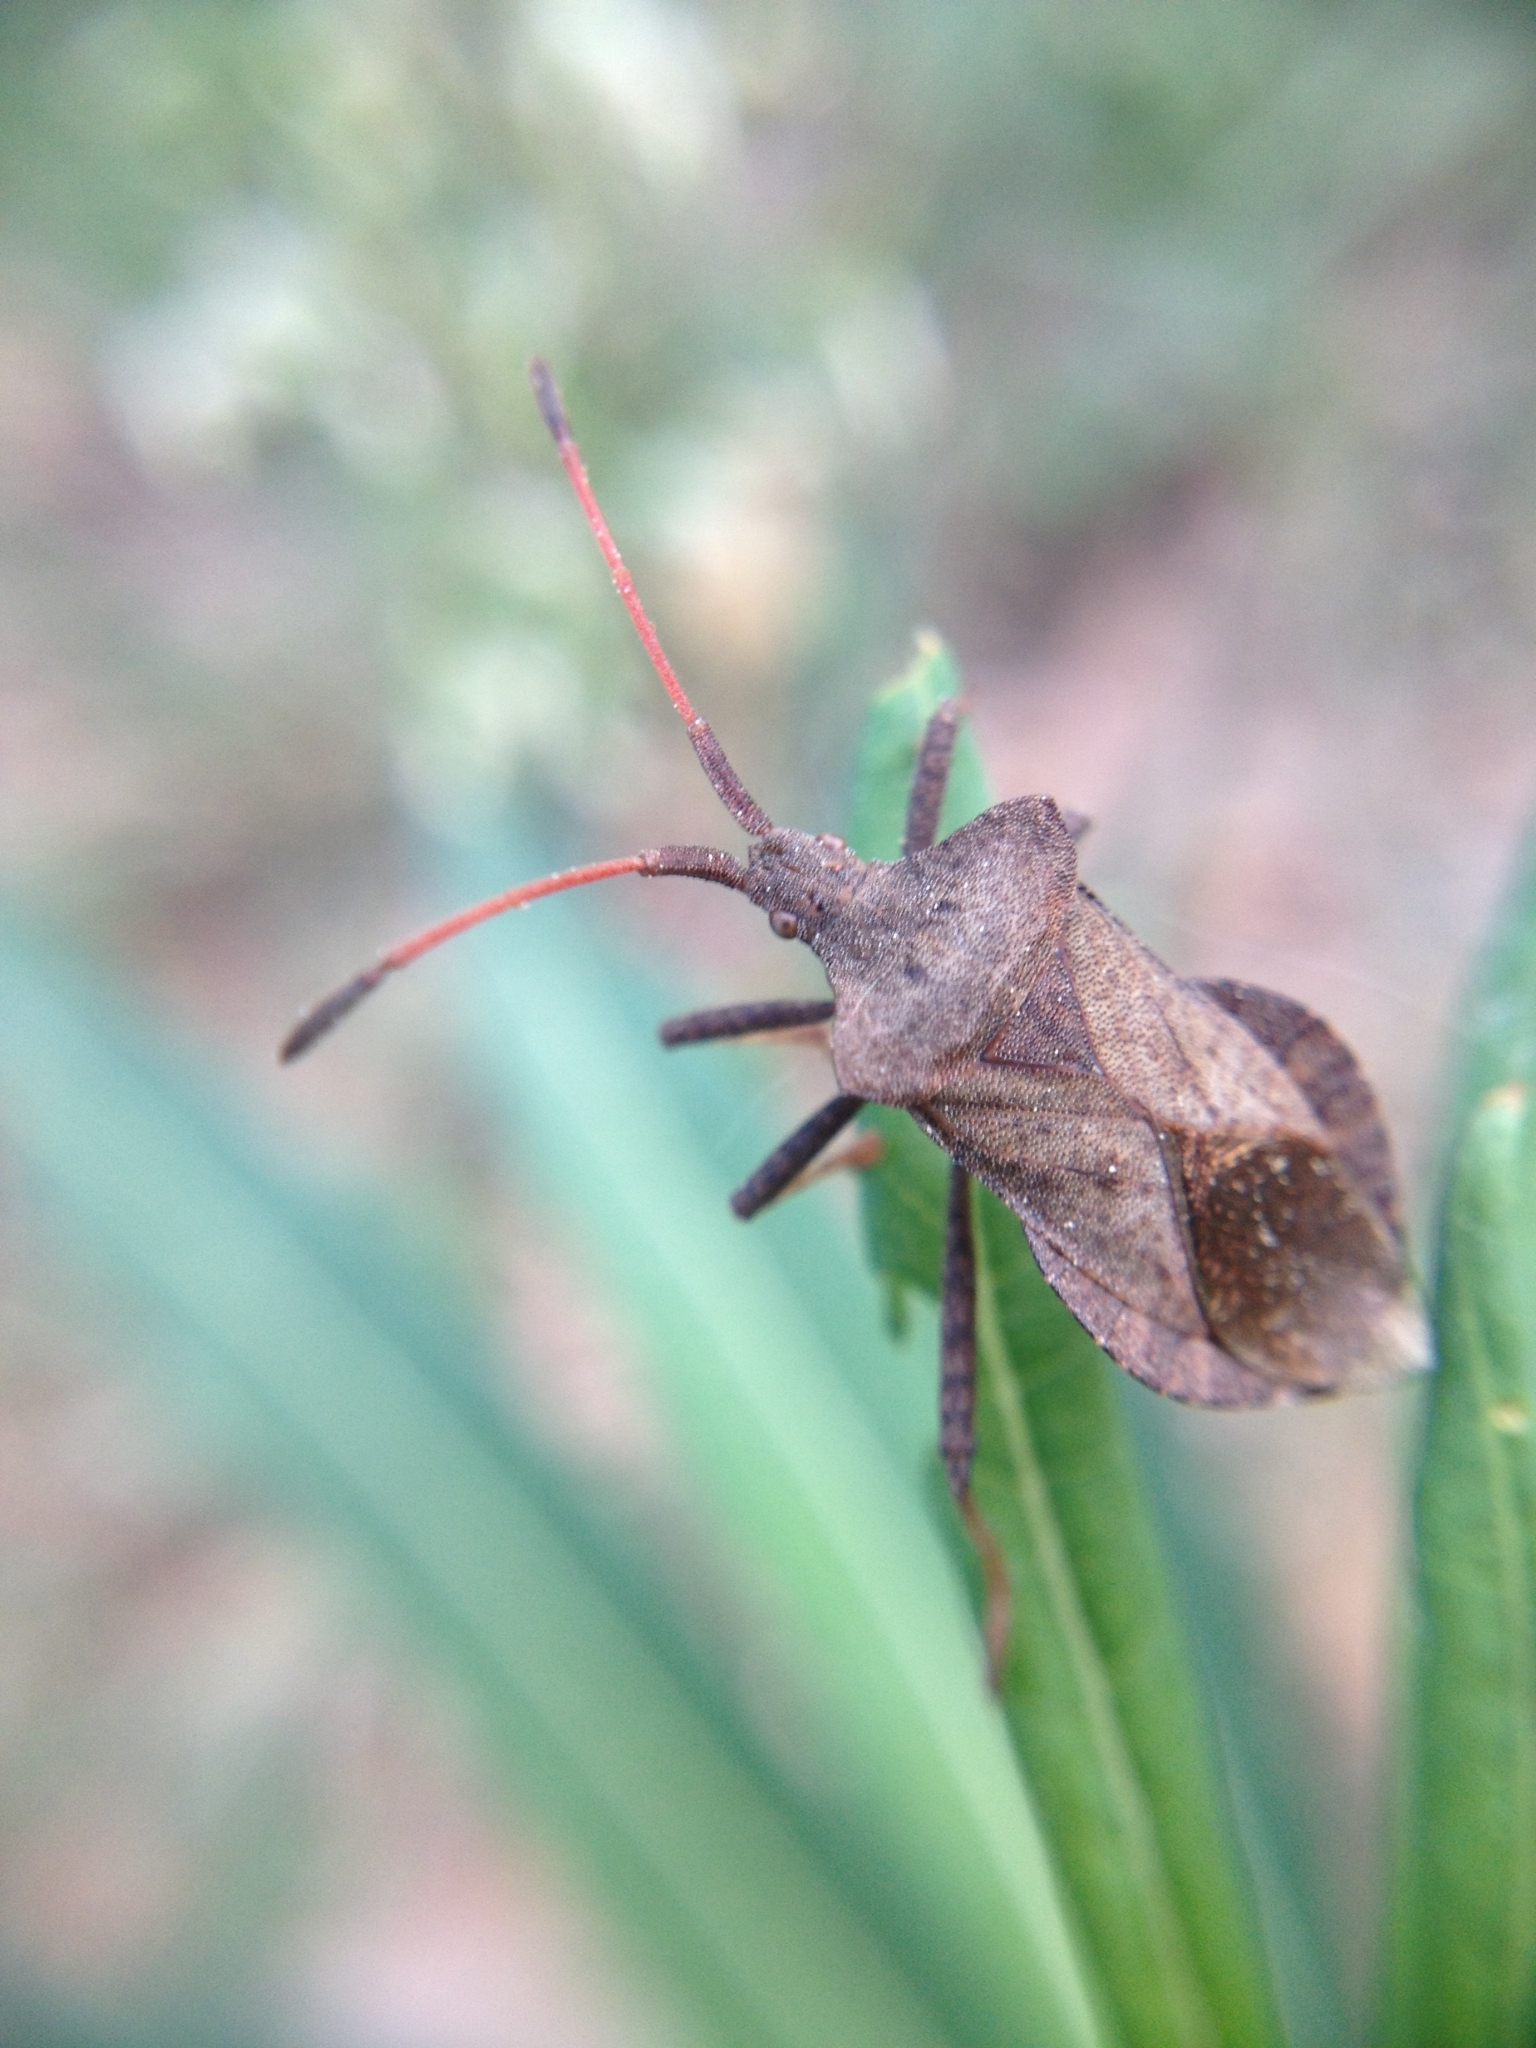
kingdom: Animalia
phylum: Arthropoda
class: Insecta
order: Hemiptera
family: Coreidae
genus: Coreus
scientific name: Coreus marginatus
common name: Dock bug
